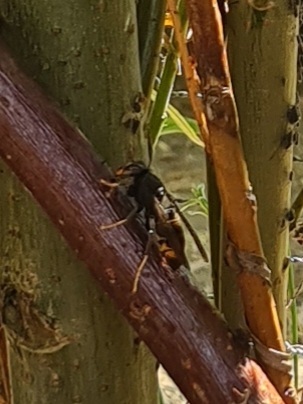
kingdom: Animalia
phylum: Arthropoda
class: Insecta
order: Hymenoptera
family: Vespidae
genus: Vespa
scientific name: Vespa velutina
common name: Asian hornet
